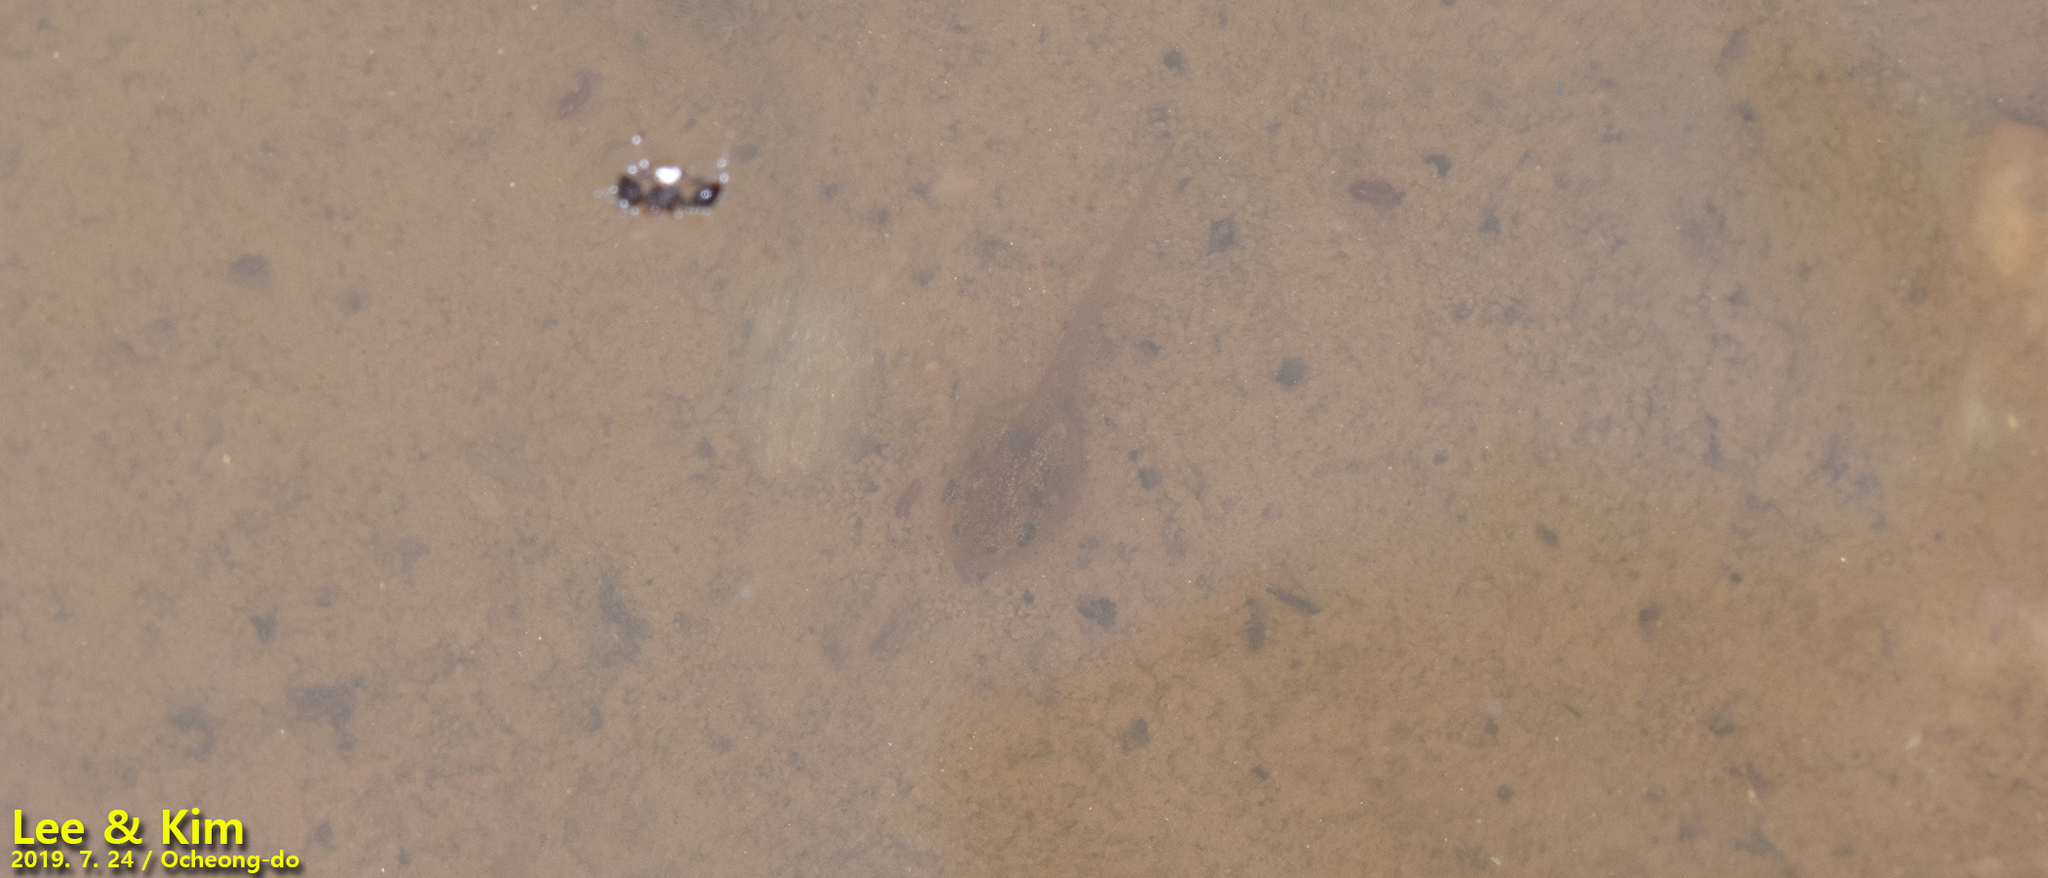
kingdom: Animalia
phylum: Chordata
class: Amphibia
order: Anura
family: Hylidae
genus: Dryophytes
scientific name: Dryophytes japonicus
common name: Japanese treefrog
